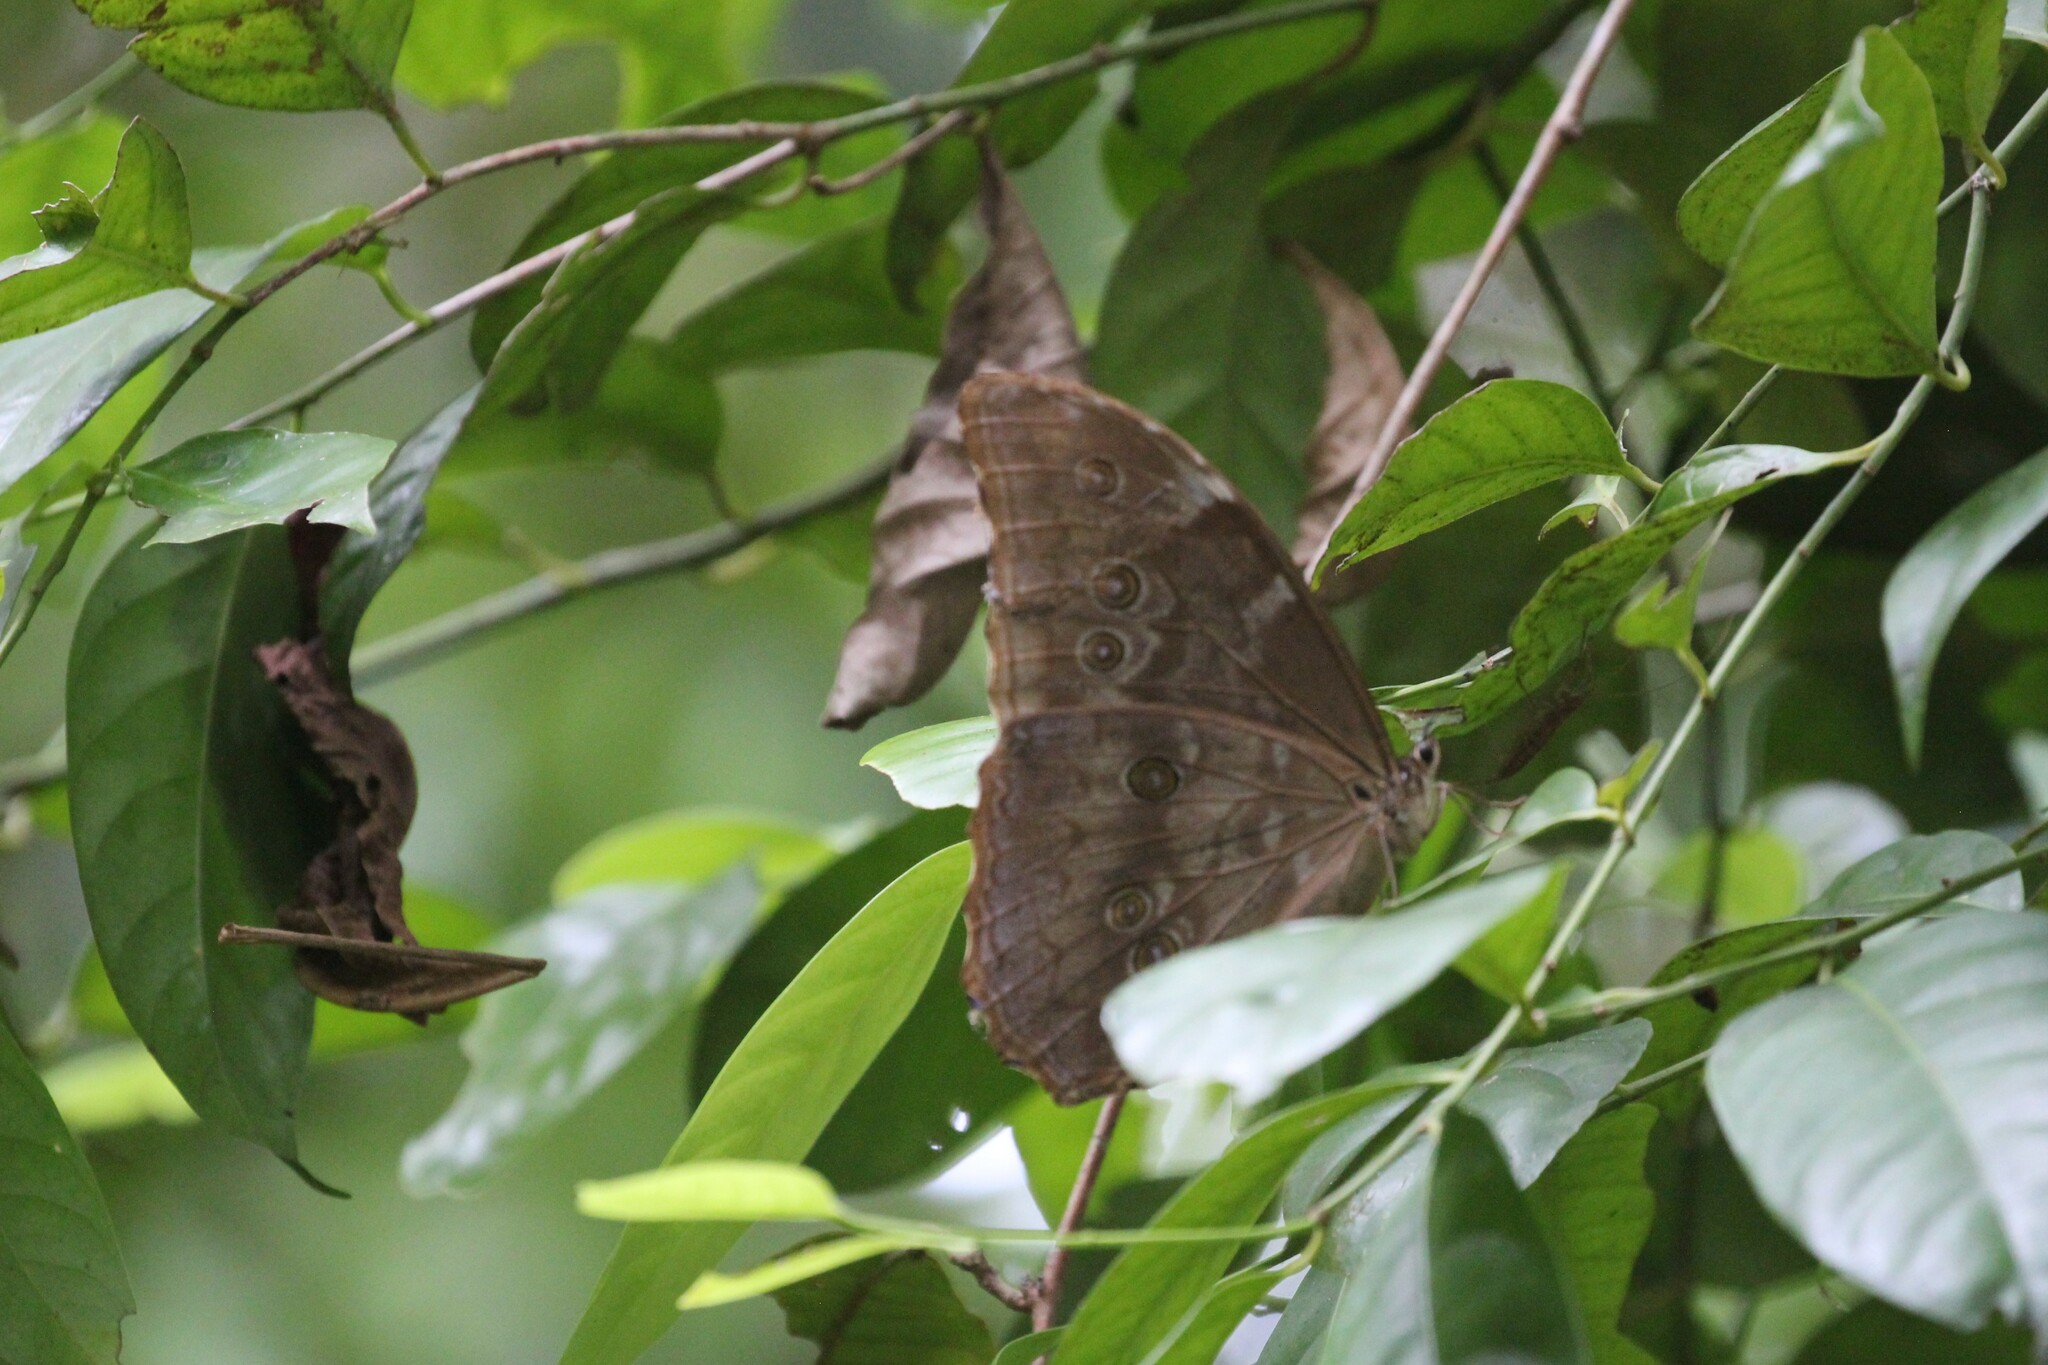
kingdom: Animalia
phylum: Arthropoda
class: Insecta
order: Lepidoptera
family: Nymphalidae
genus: Morpho
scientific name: Morpho amathonte
